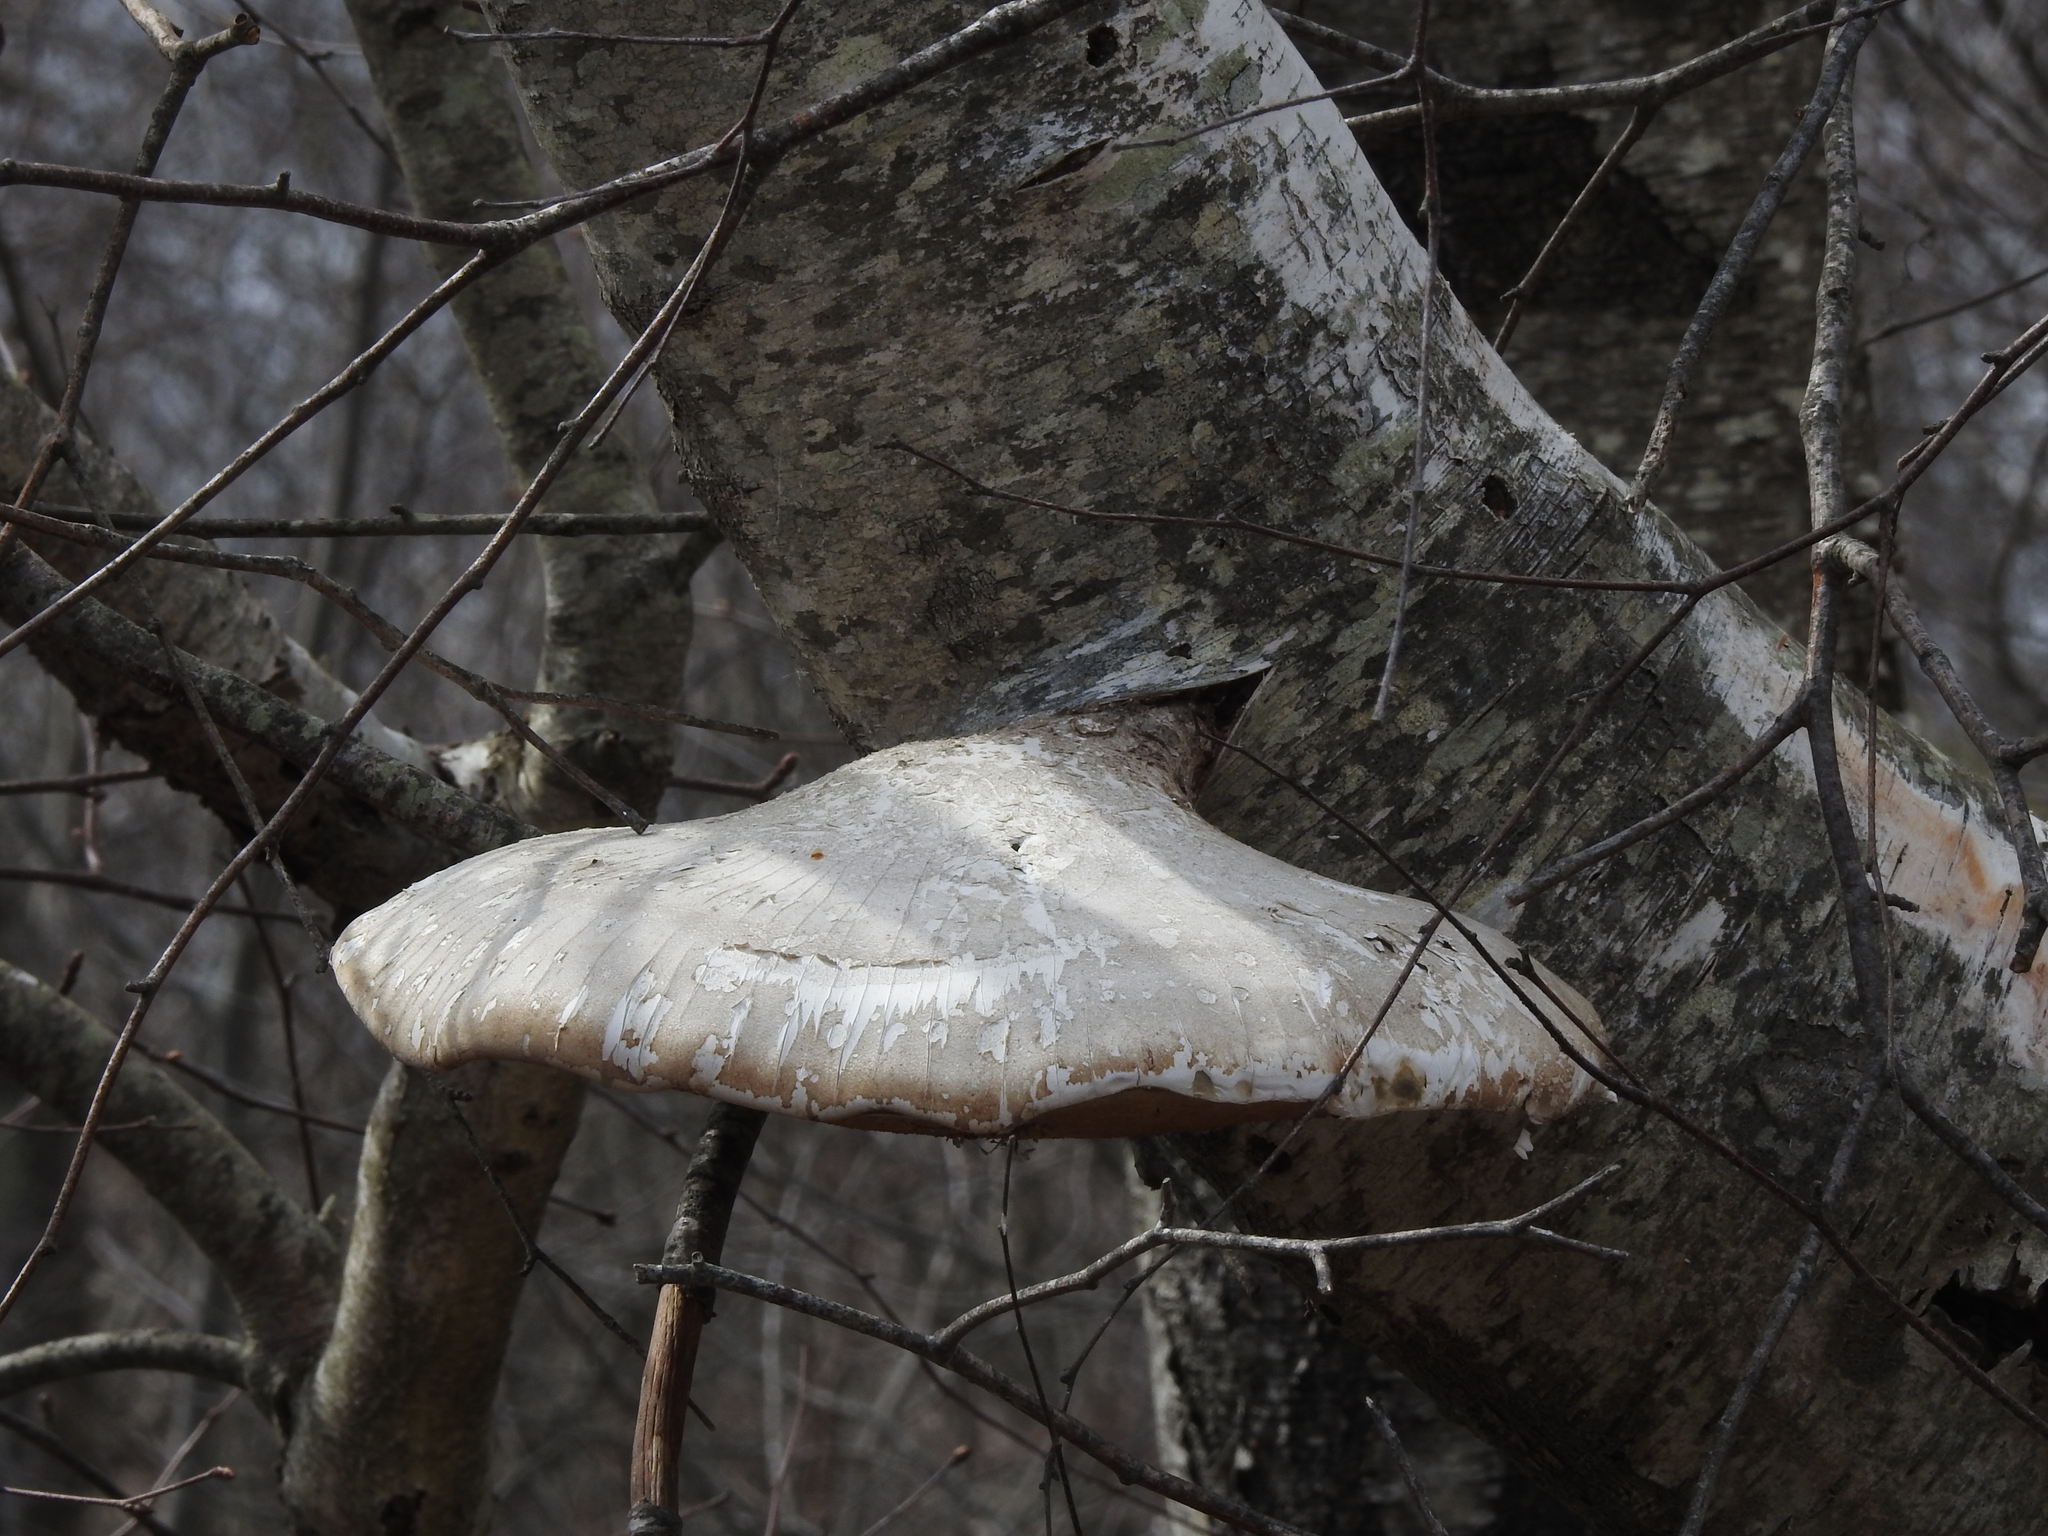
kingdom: Fungi
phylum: Basidiomycota
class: Agaricomycetes
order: Polyporales
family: Fomitopsidaceae
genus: Fomitopsis
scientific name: Fomitopsis betulina
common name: Birch polypore
